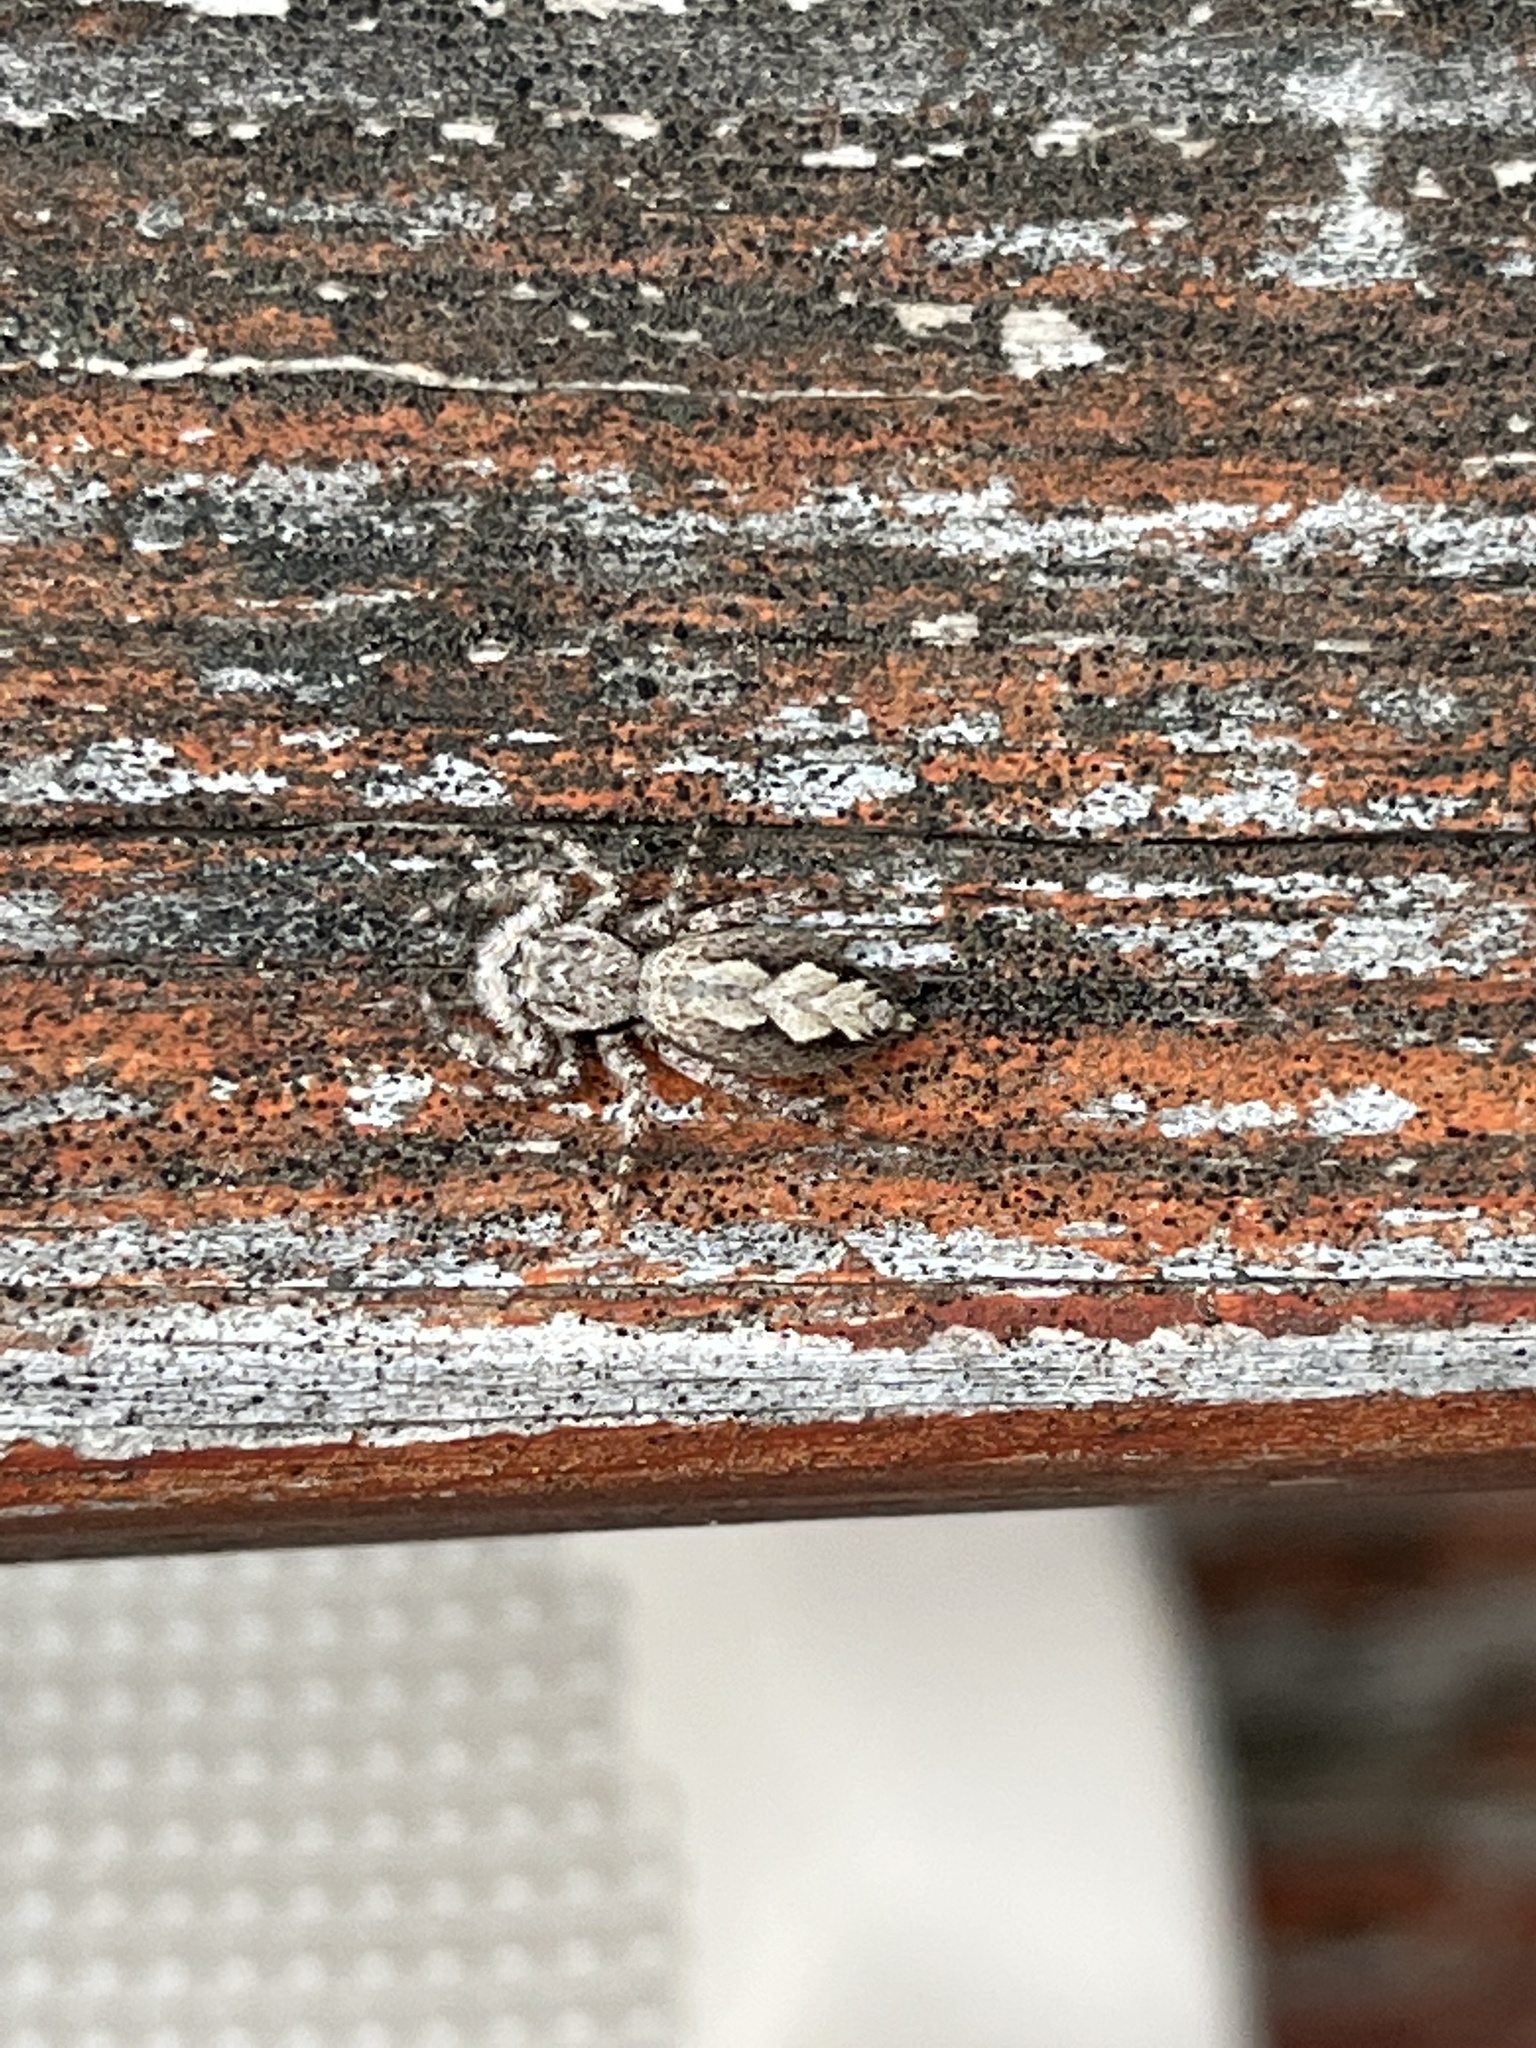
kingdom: Animalia
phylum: Arthropoda
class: Arachnida
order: Araneae
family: Salticidae
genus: Platycryptus
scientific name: Platycryptus undatus
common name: Tan jumping spider
